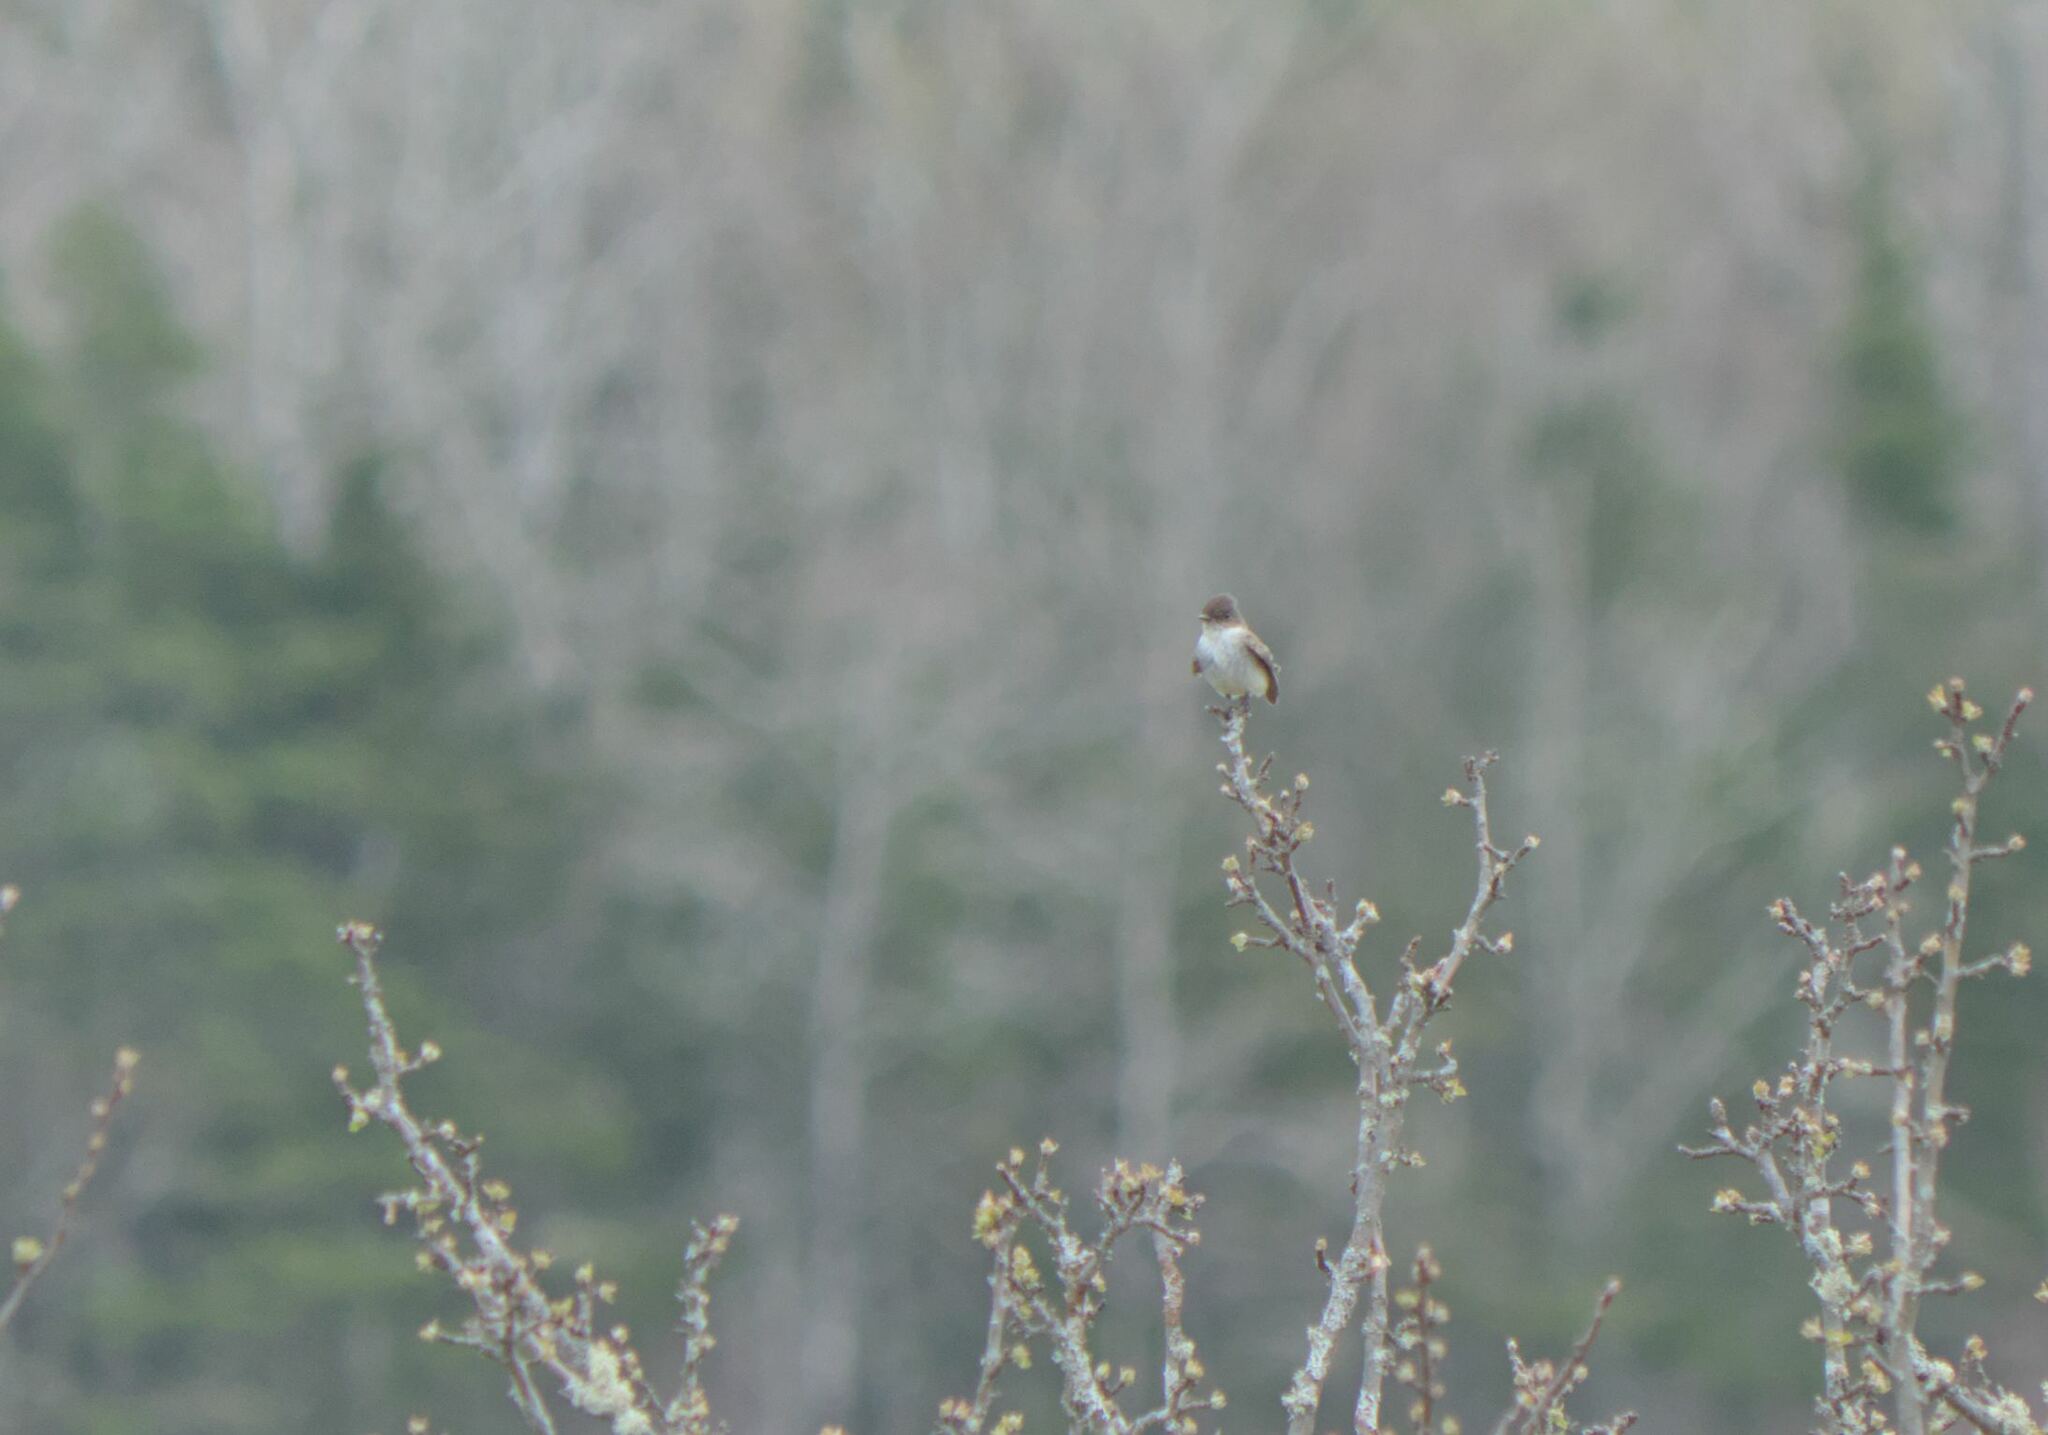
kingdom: Animalia
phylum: Chordata
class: Aves
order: Passeriformes
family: Tyrannidae
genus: Sayornis
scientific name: Sayornis phoebe
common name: Eastern phoebe
